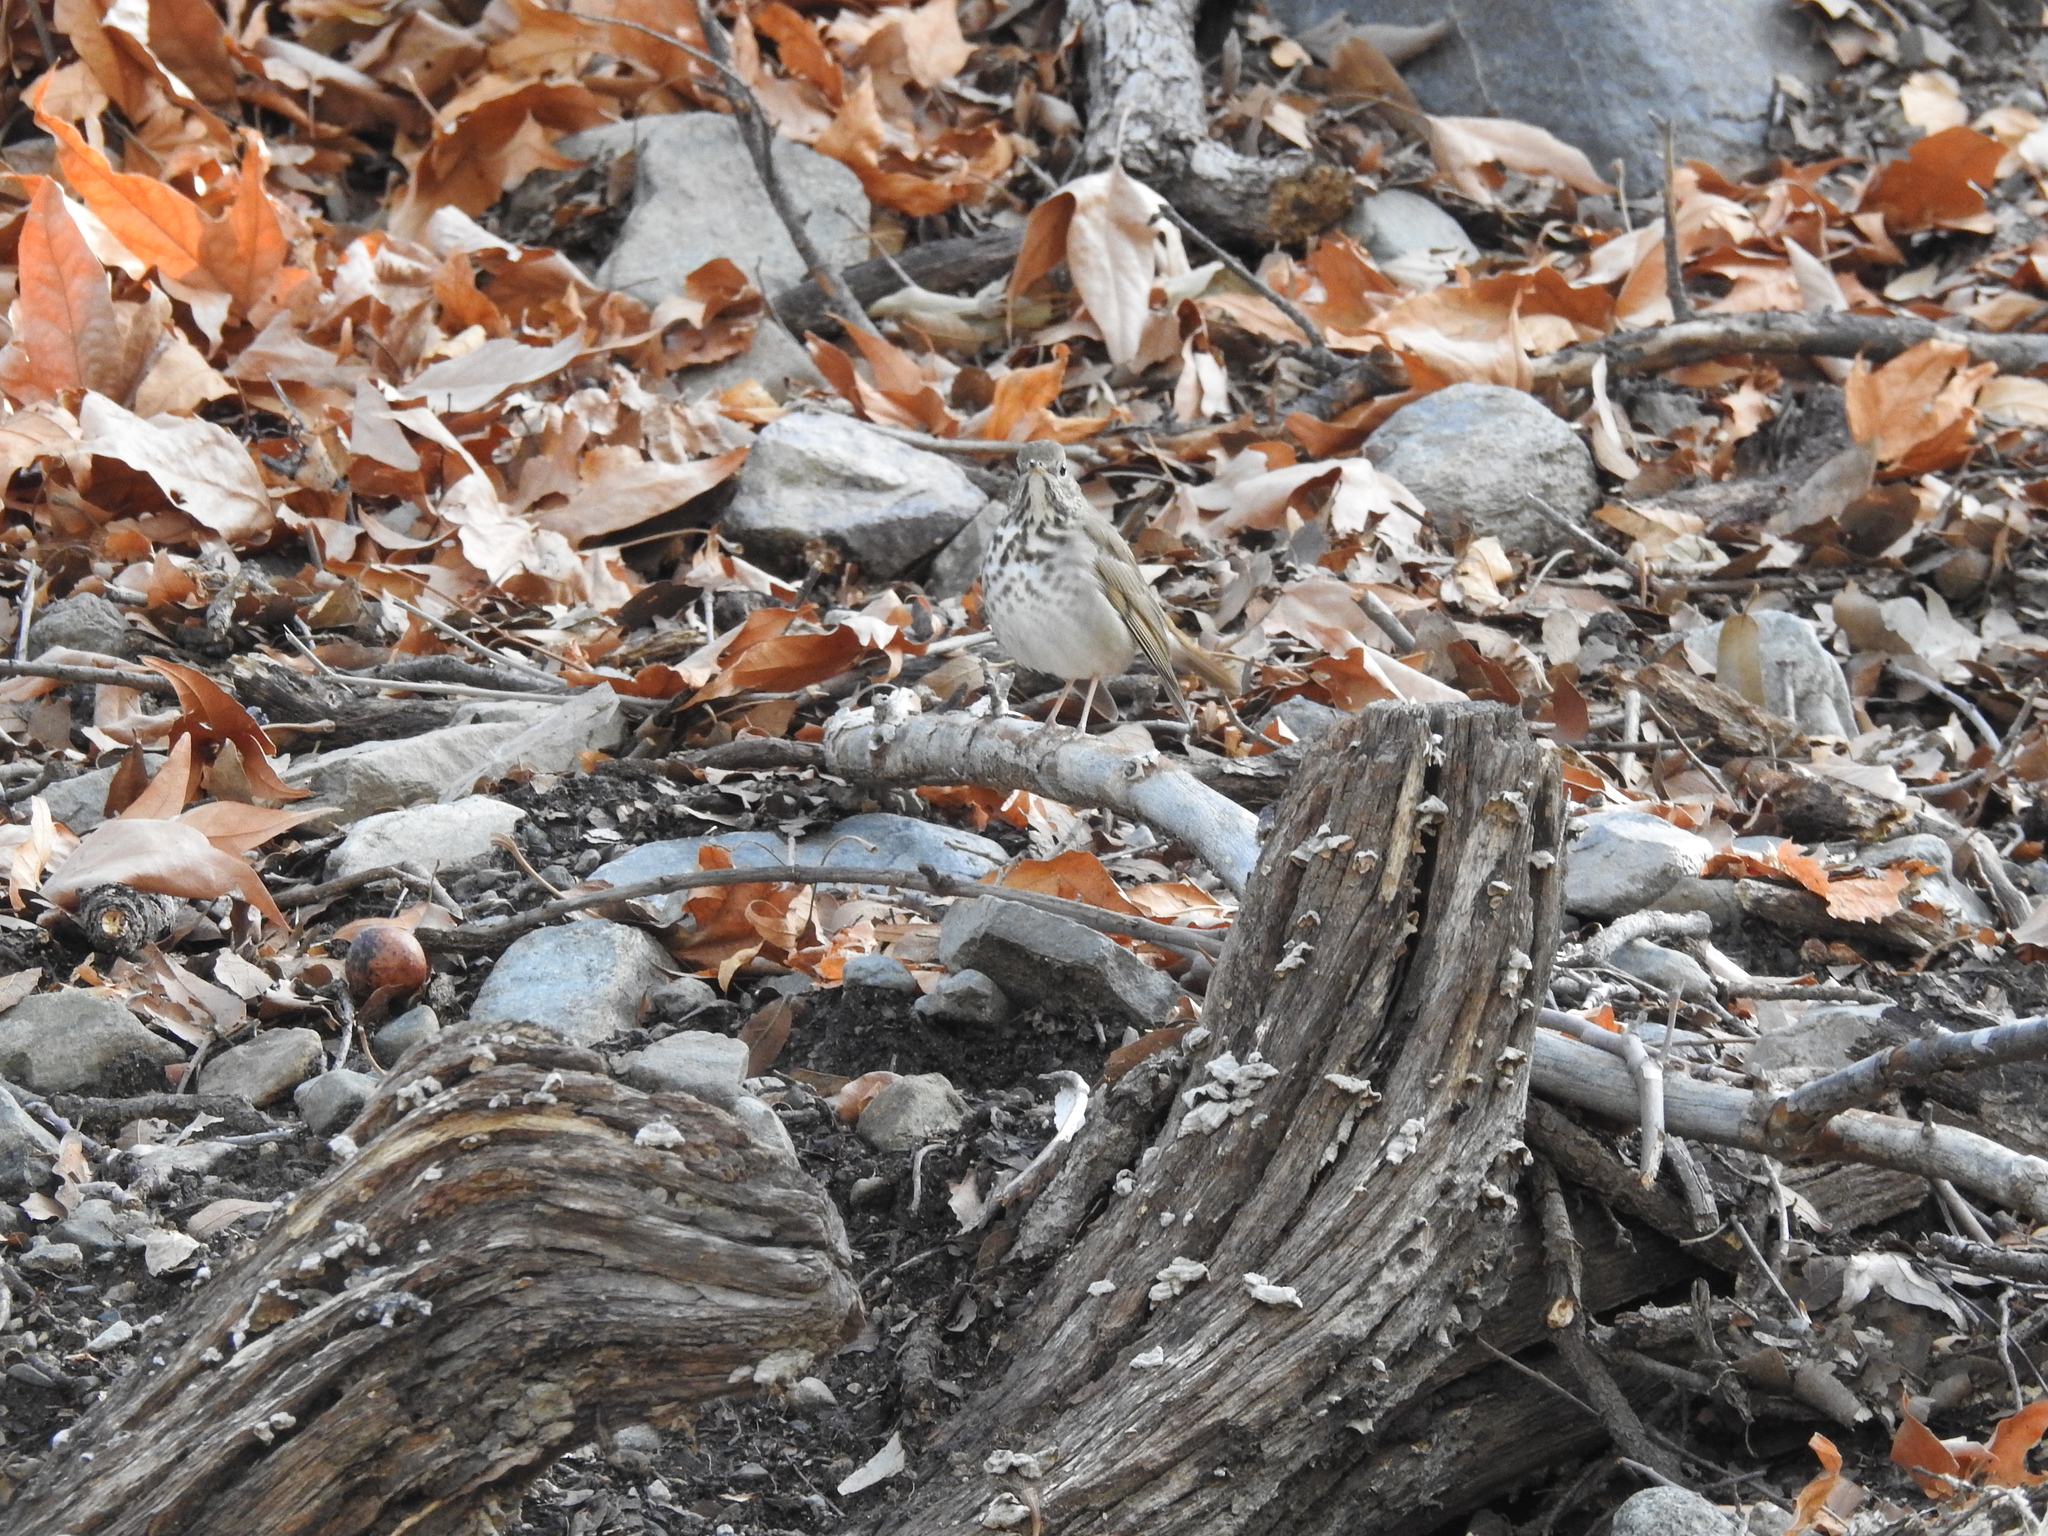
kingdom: Animalia
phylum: Chordata
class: Aves
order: Passeriformes
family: Turdidae
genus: Catharus
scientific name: Catharus guttatus
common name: Hermit thrush
